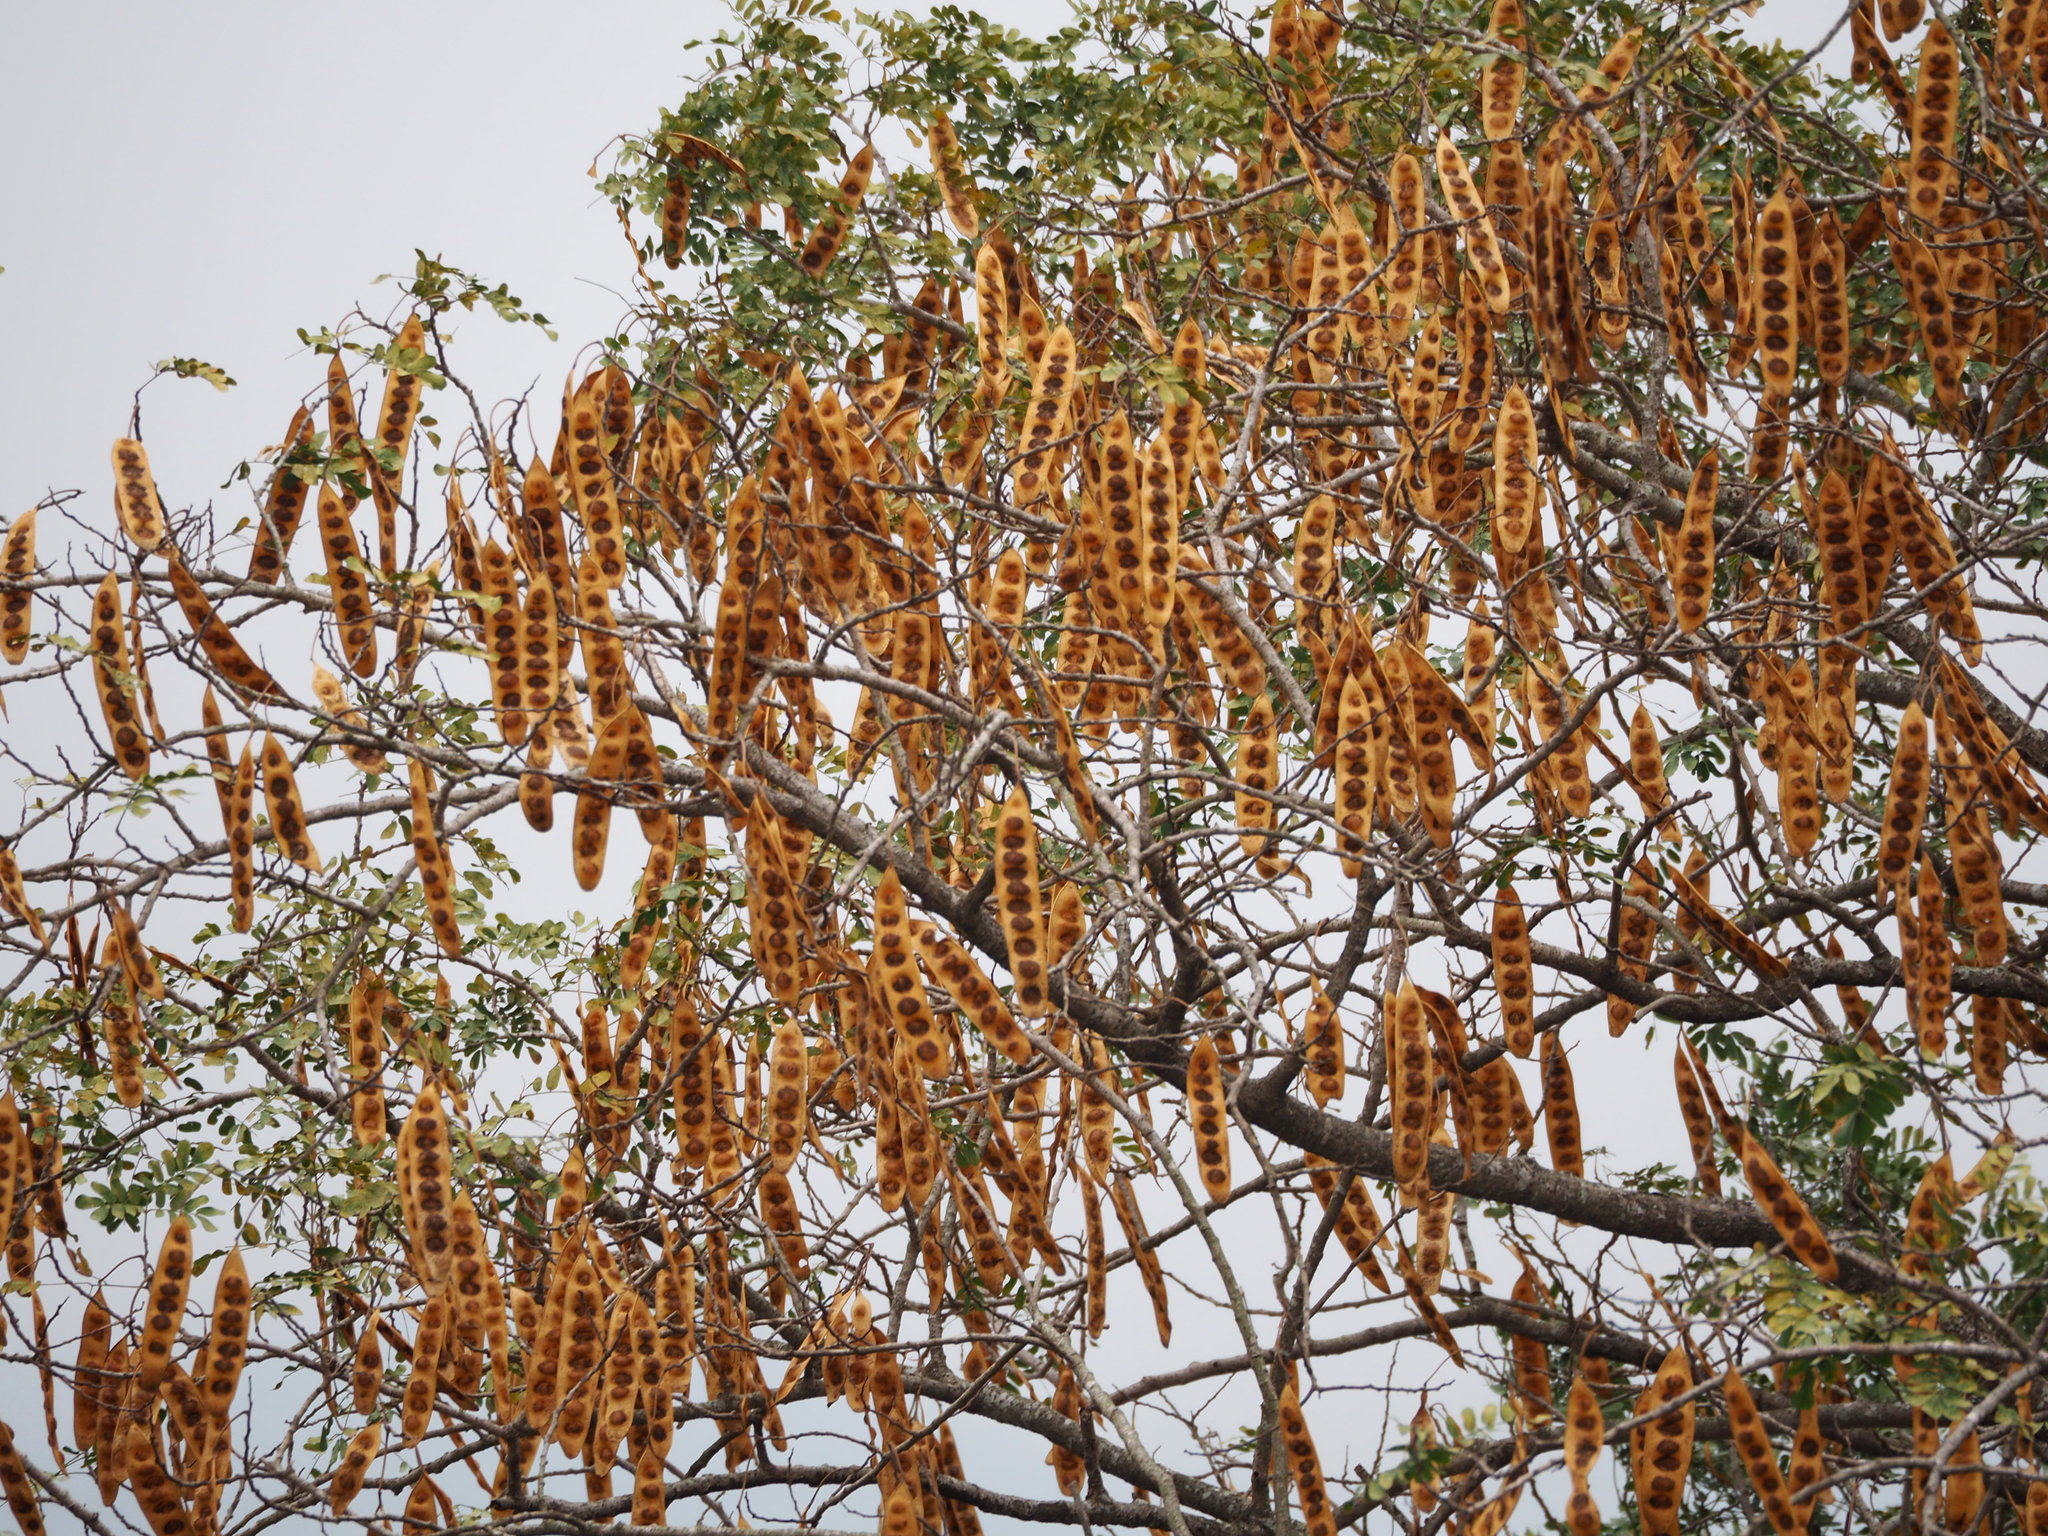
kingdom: Plantae
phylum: Tracheophyta
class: Magnoliopsida
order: Fabales
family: Fabaceae
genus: Albizia
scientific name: Albizia lebbeck
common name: Woman's tongue
